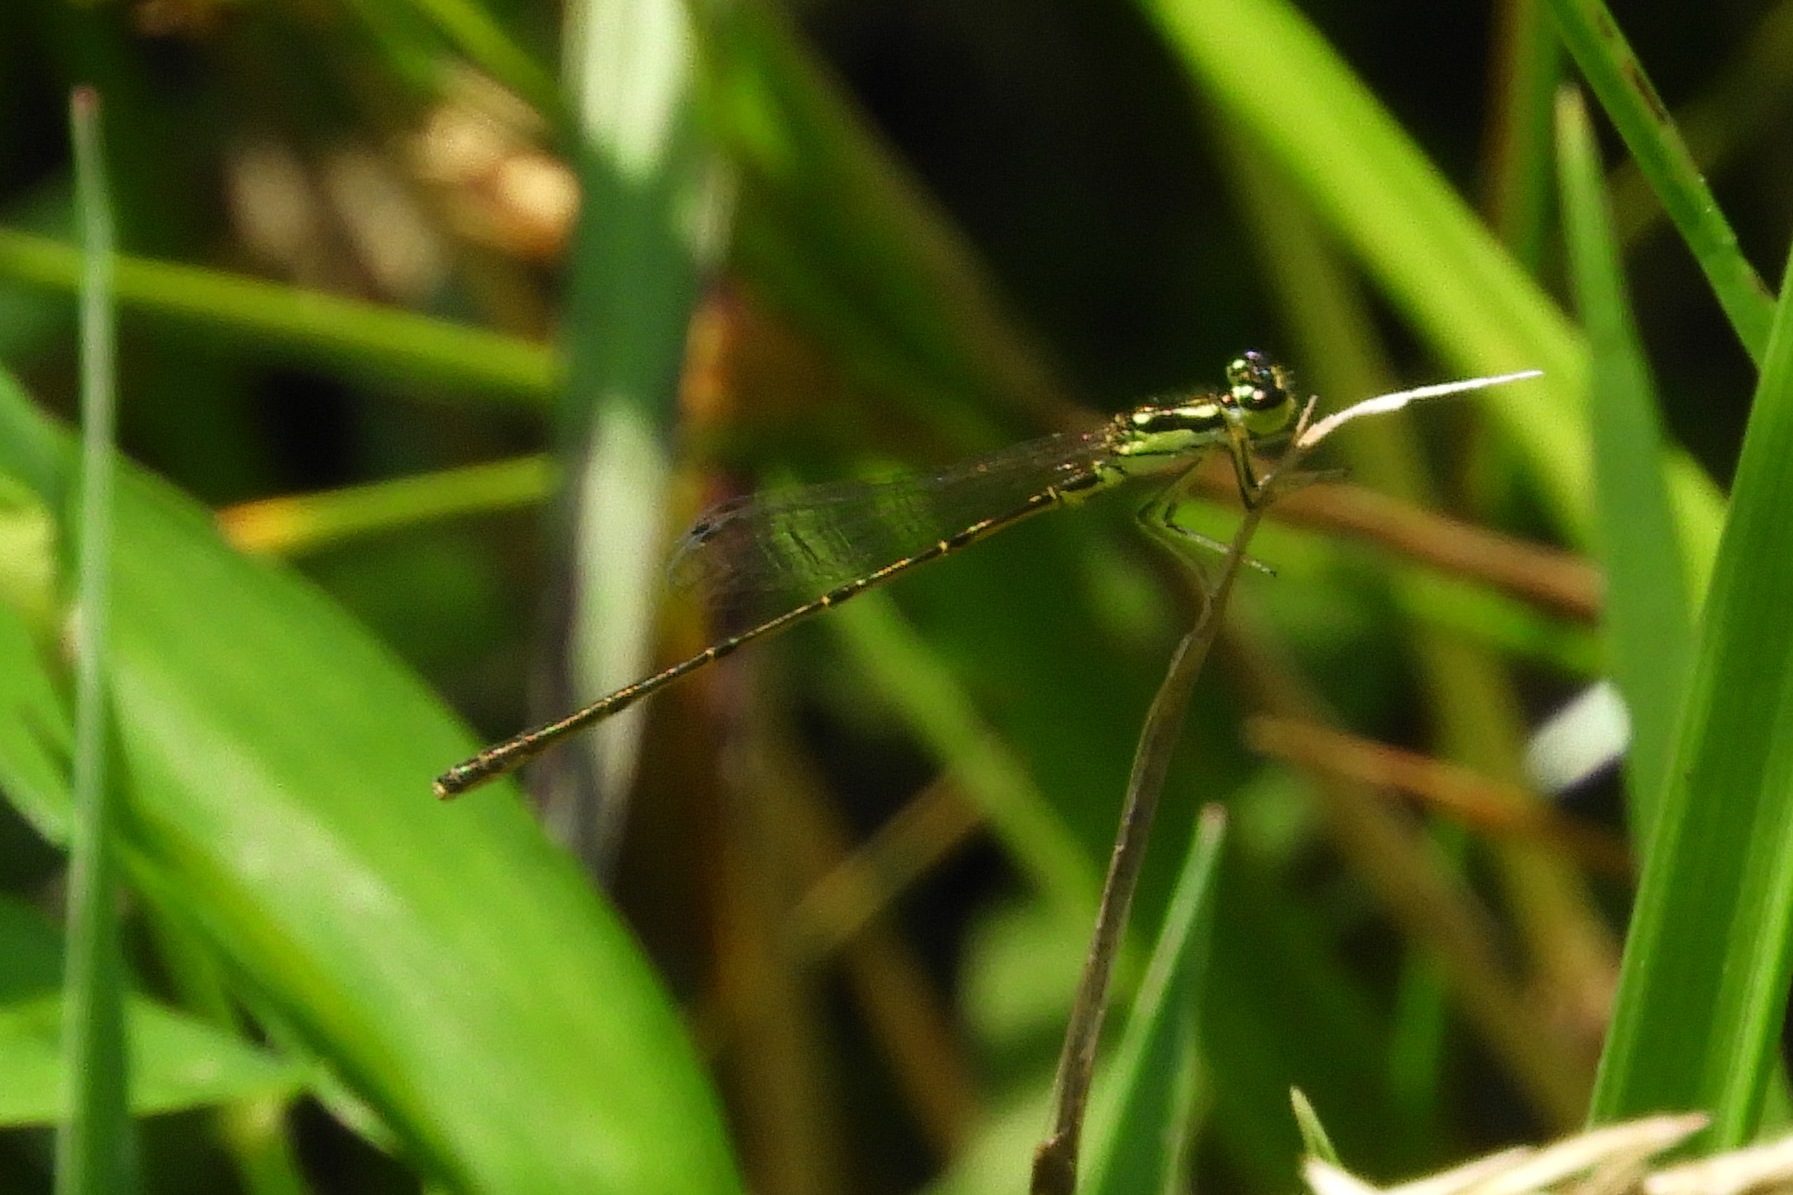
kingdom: Animalia
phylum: Arthropoda
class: Insecta
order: Odonata
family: Coenagrionidae
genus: Ischnura
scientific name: Ischnura posita
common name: Fragile forktail
